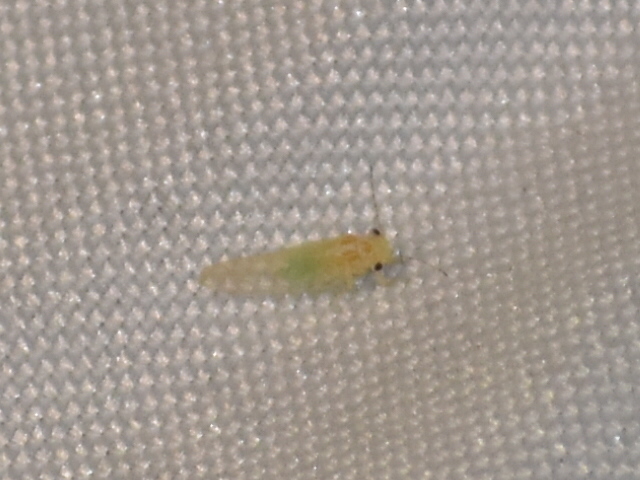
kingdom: Animalia
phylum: Arthropoda
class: Insecta
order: Hemiptera
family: Psyllidae
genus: Cacopsylla
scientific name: Cacopsylla annulata
